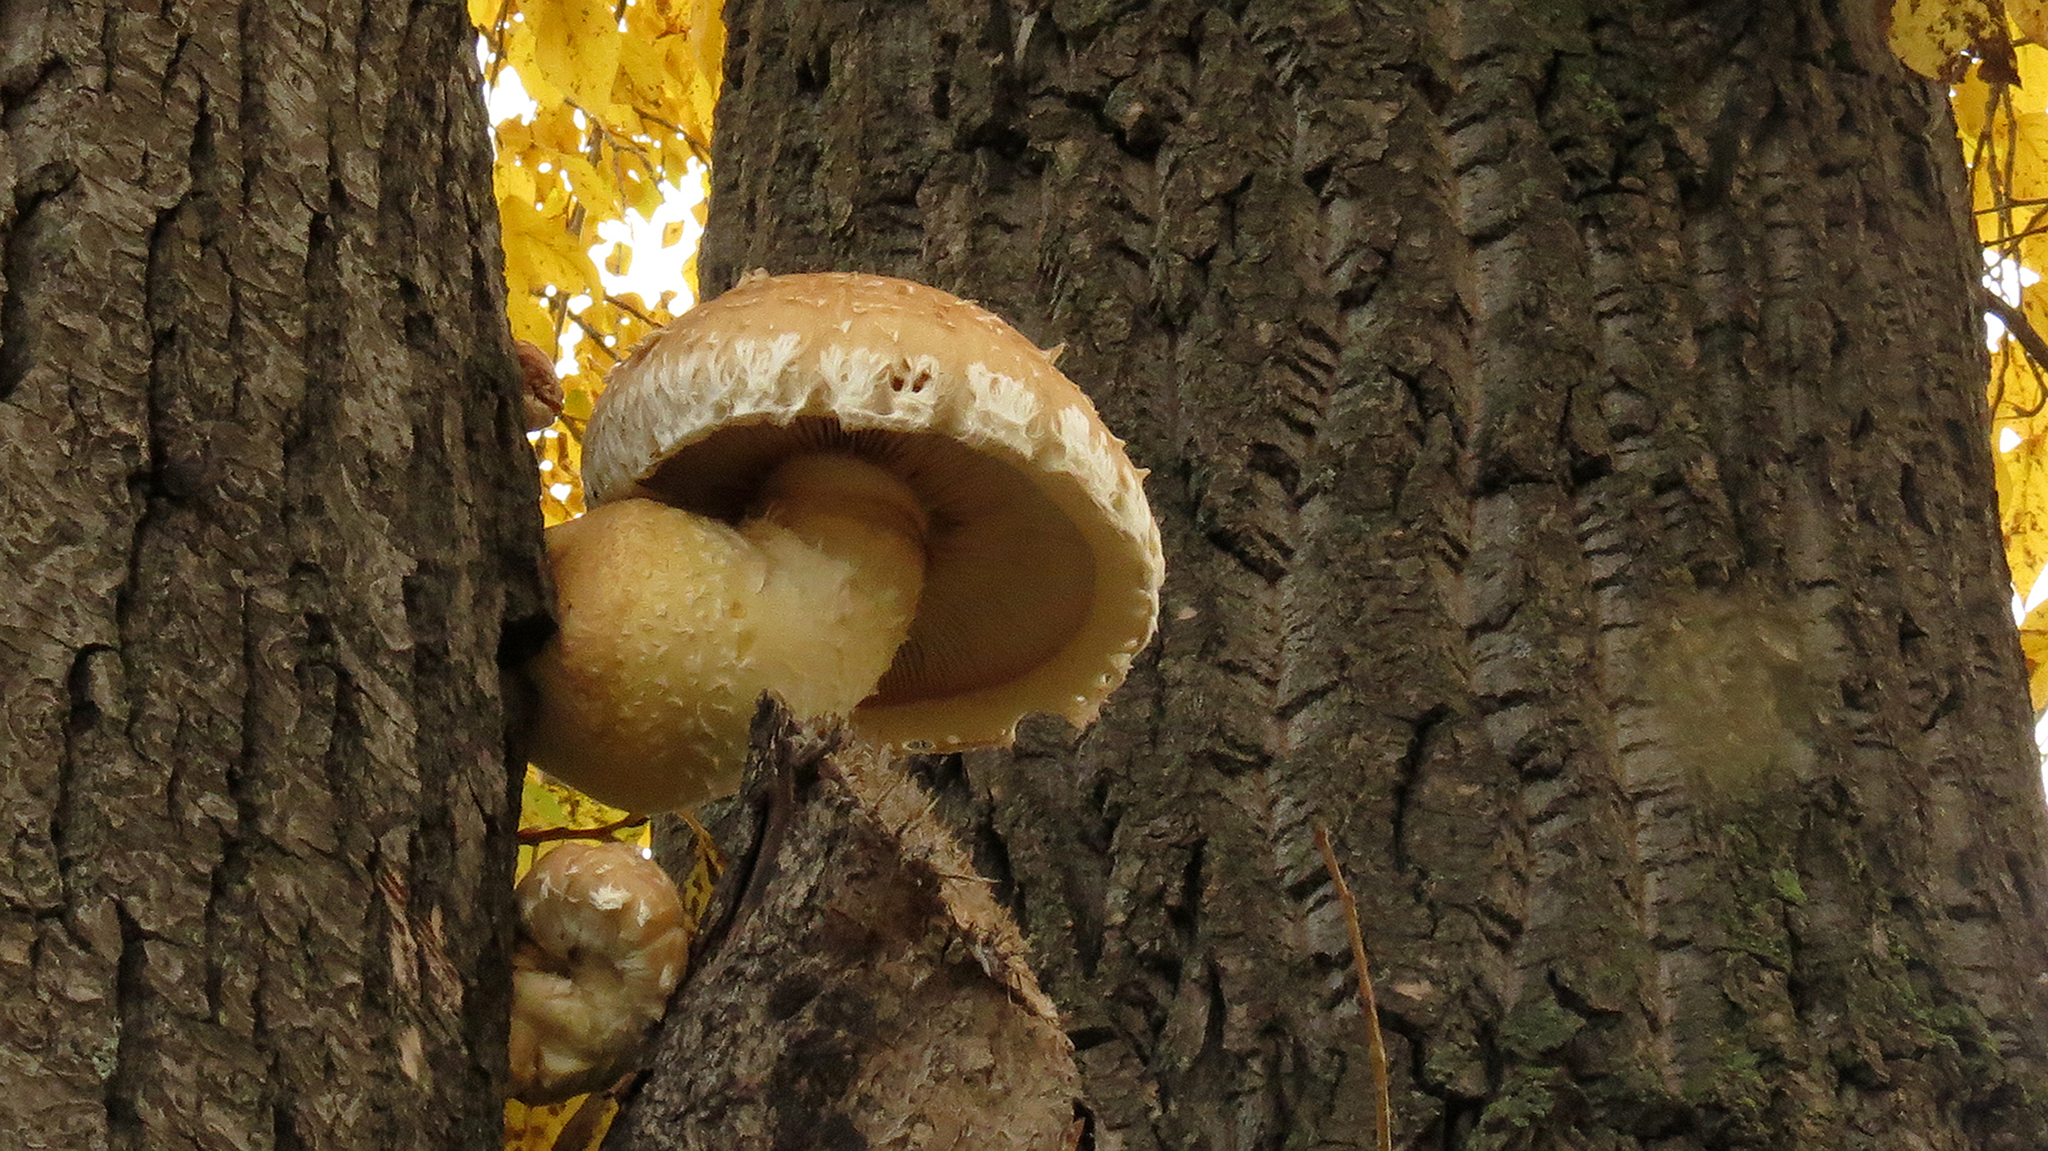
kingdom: Fungi
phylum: Basidiomycota
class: Agaricomycetes
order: Agaricales
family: Strophariaceae
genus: Pholiota
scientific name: Pholiota populnea
